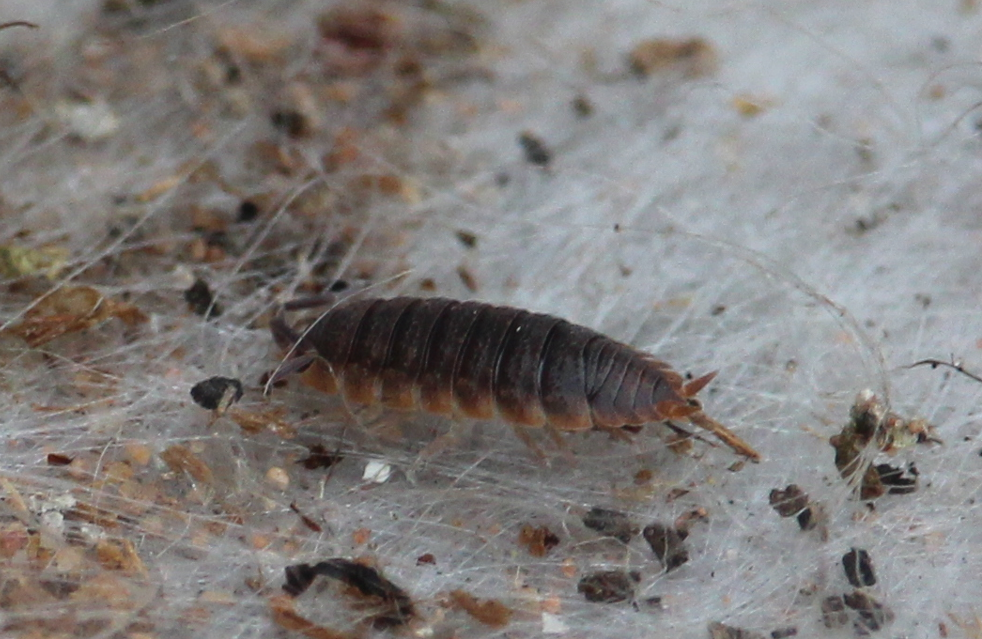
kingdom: Animalia
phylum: Arthropoda
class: Malacostraca
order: Isopoda
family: Porcellionidae
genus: Porcellio
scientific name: Porcellio scaber
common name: Common rough woodlouse
